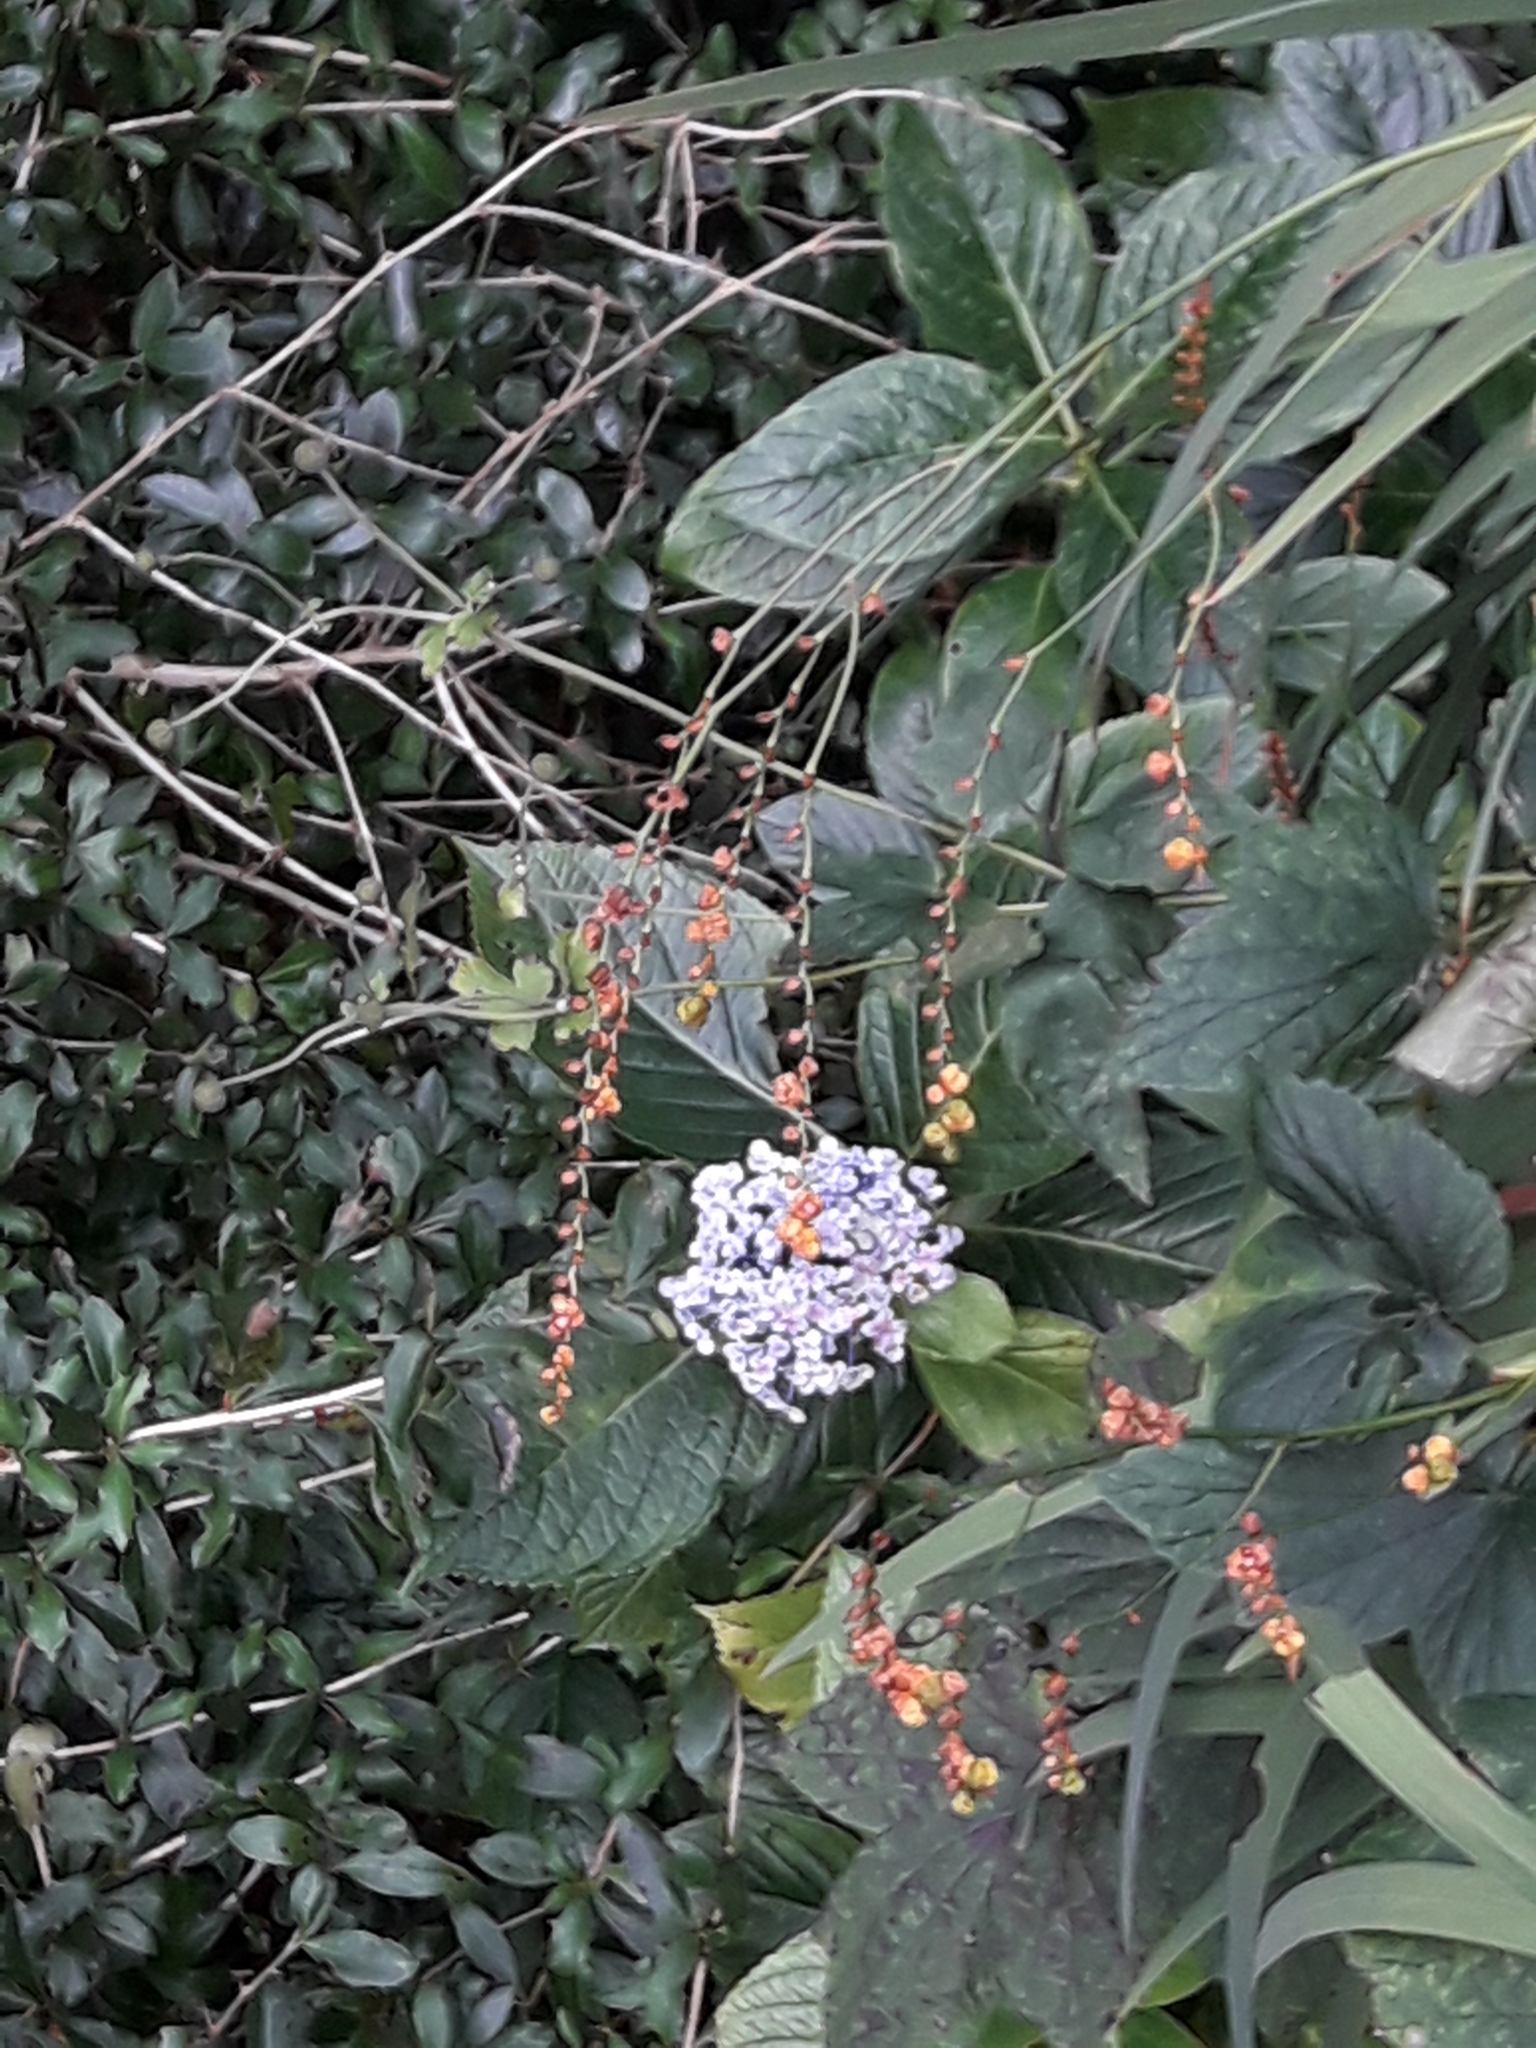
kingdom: Plantae
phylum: Tracheophyta
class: Magnoliopsida
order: Cornales
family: Hydrangeaceae
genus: Hydrangea
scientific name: Hydrangea macrophylla
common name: Hydrangea
